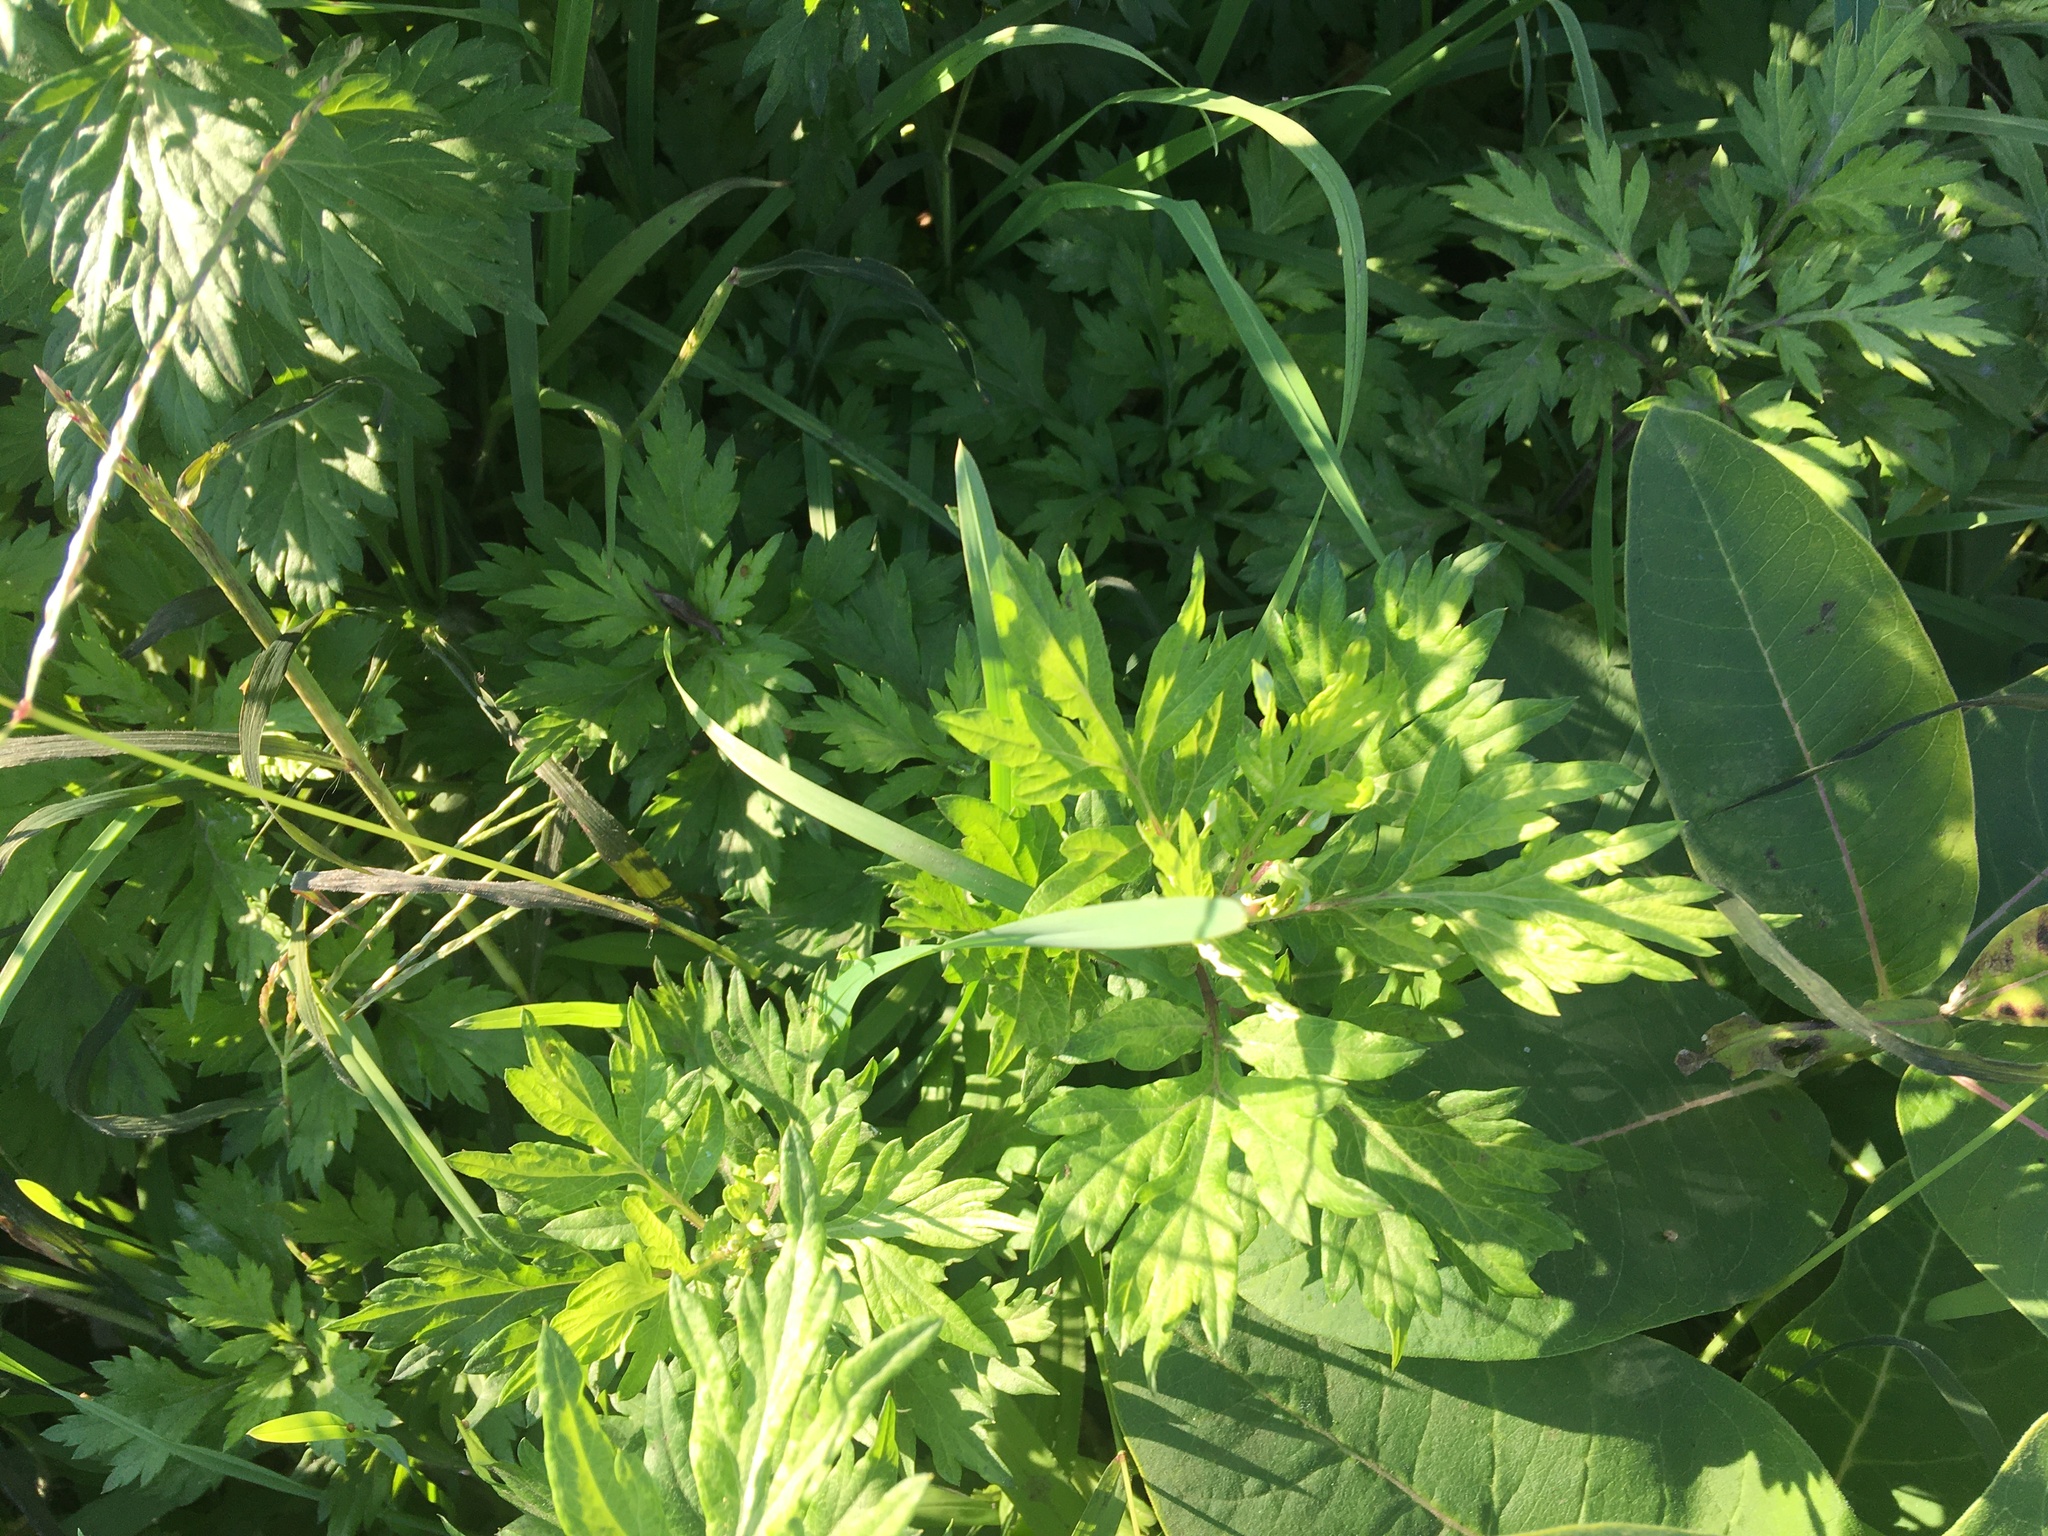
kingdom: Plantae
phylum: Tracheophyta
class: Magnoliopsida
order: Asterales
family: Asteraceae
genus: Artemisia
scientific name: Artemisia vulgaris
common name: Mugwort
